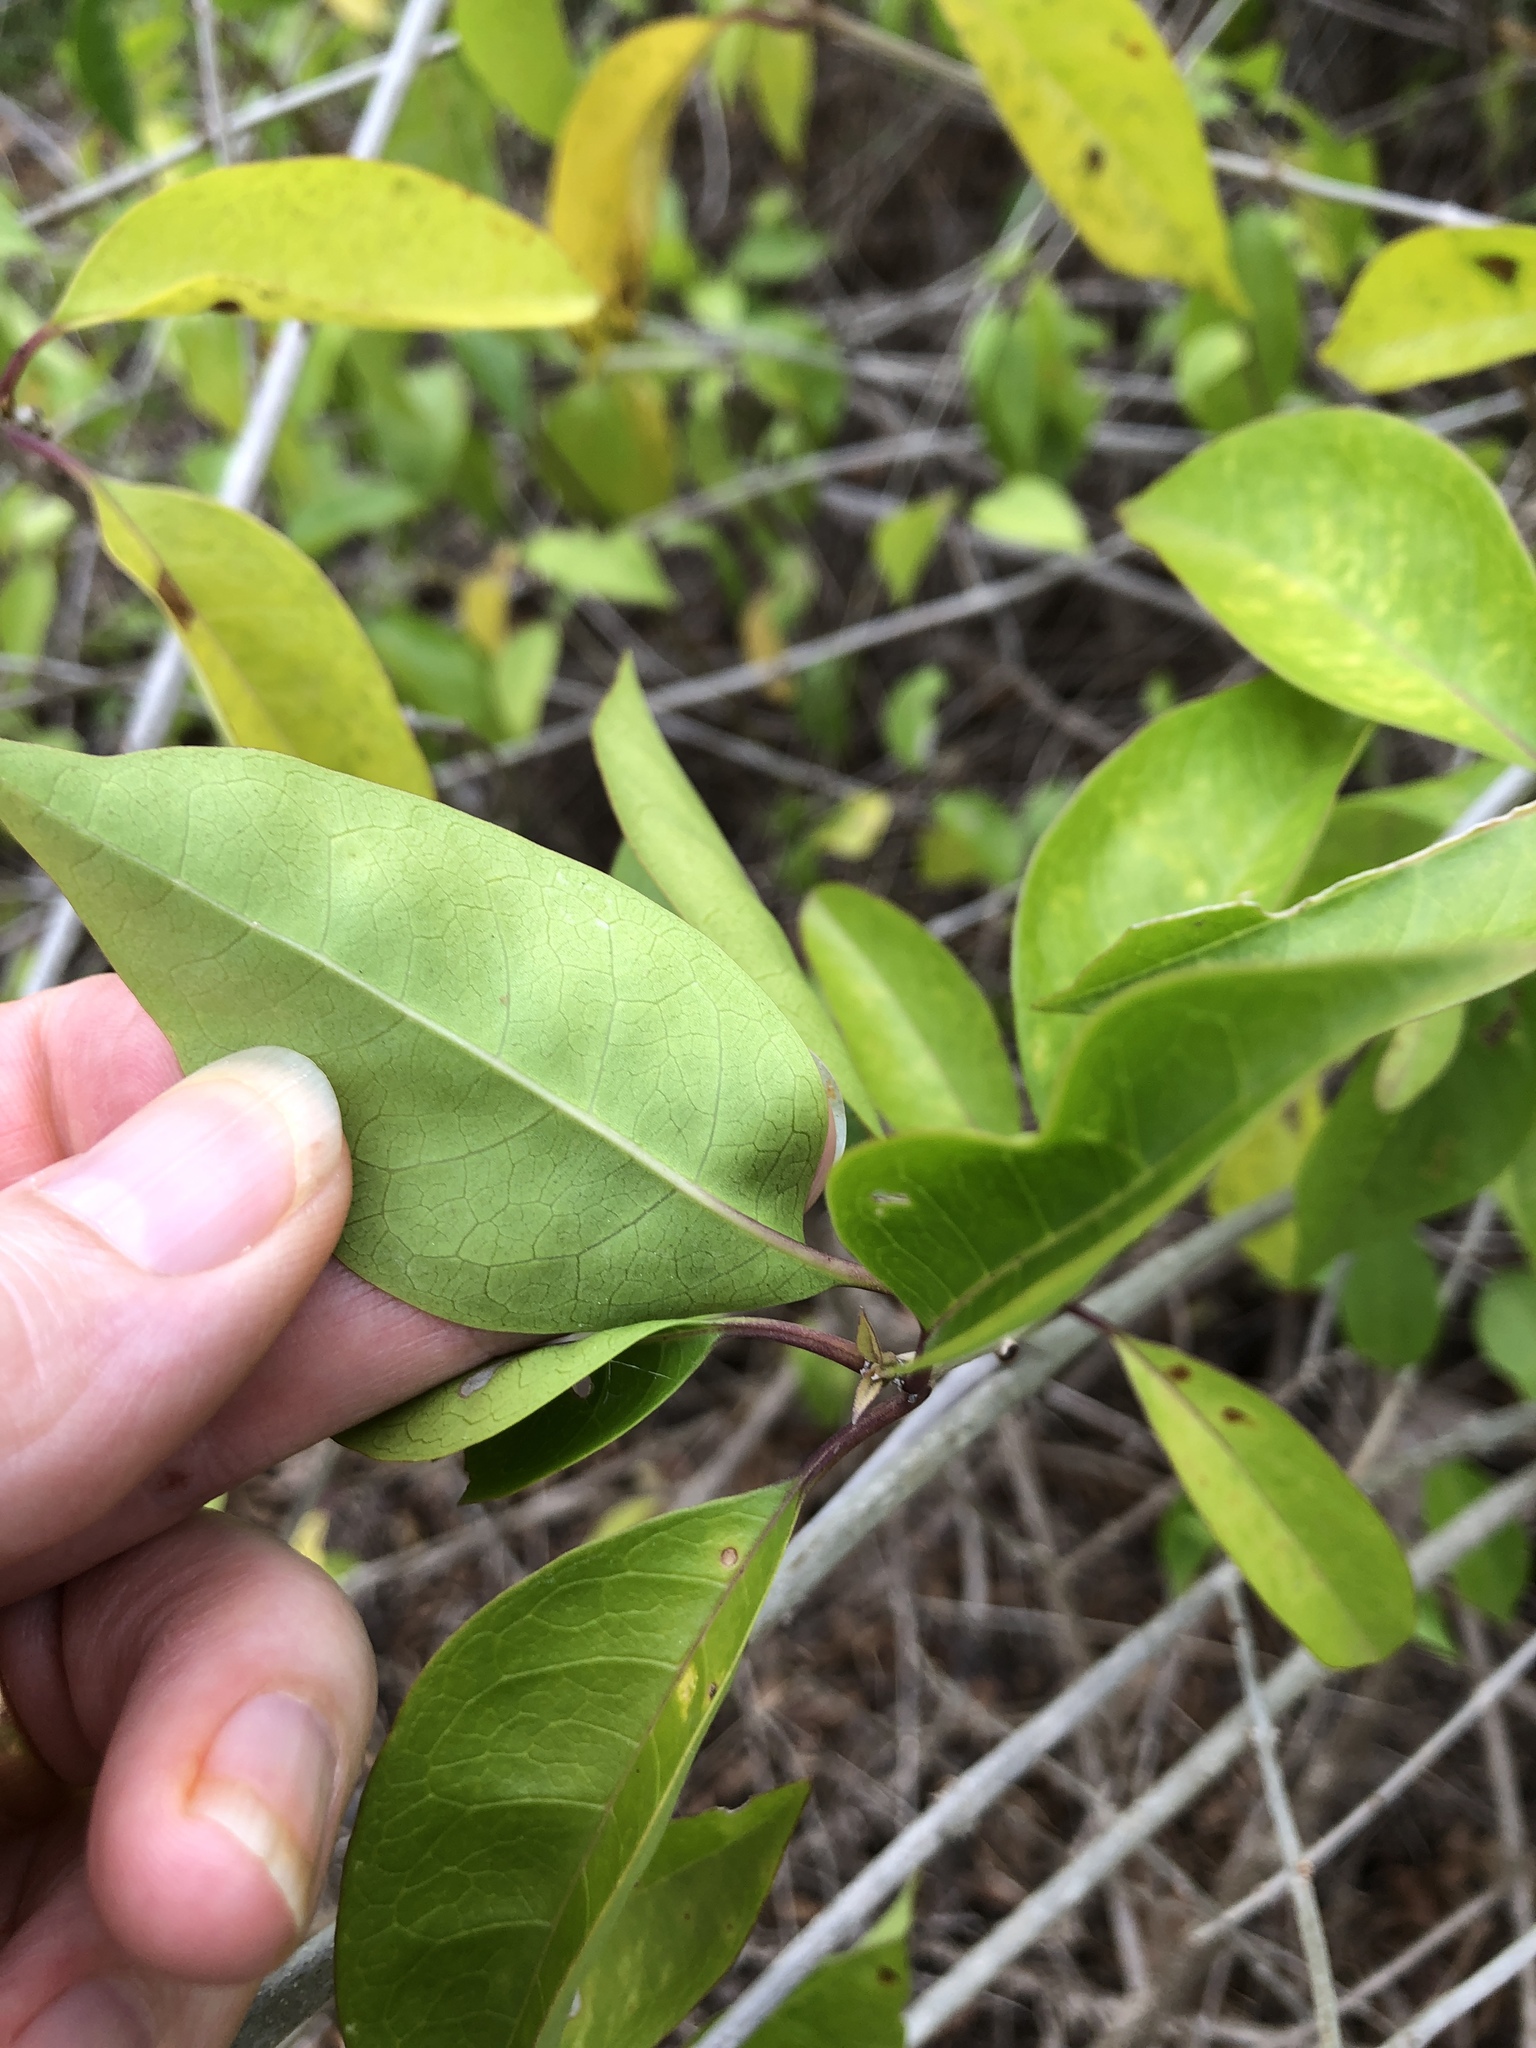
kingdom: Plantae
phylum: Tracheophyta
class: Magnoliopsida
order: Lamiales
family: Lamiaceae
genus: Volkameria
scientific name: Volkameria inermis
